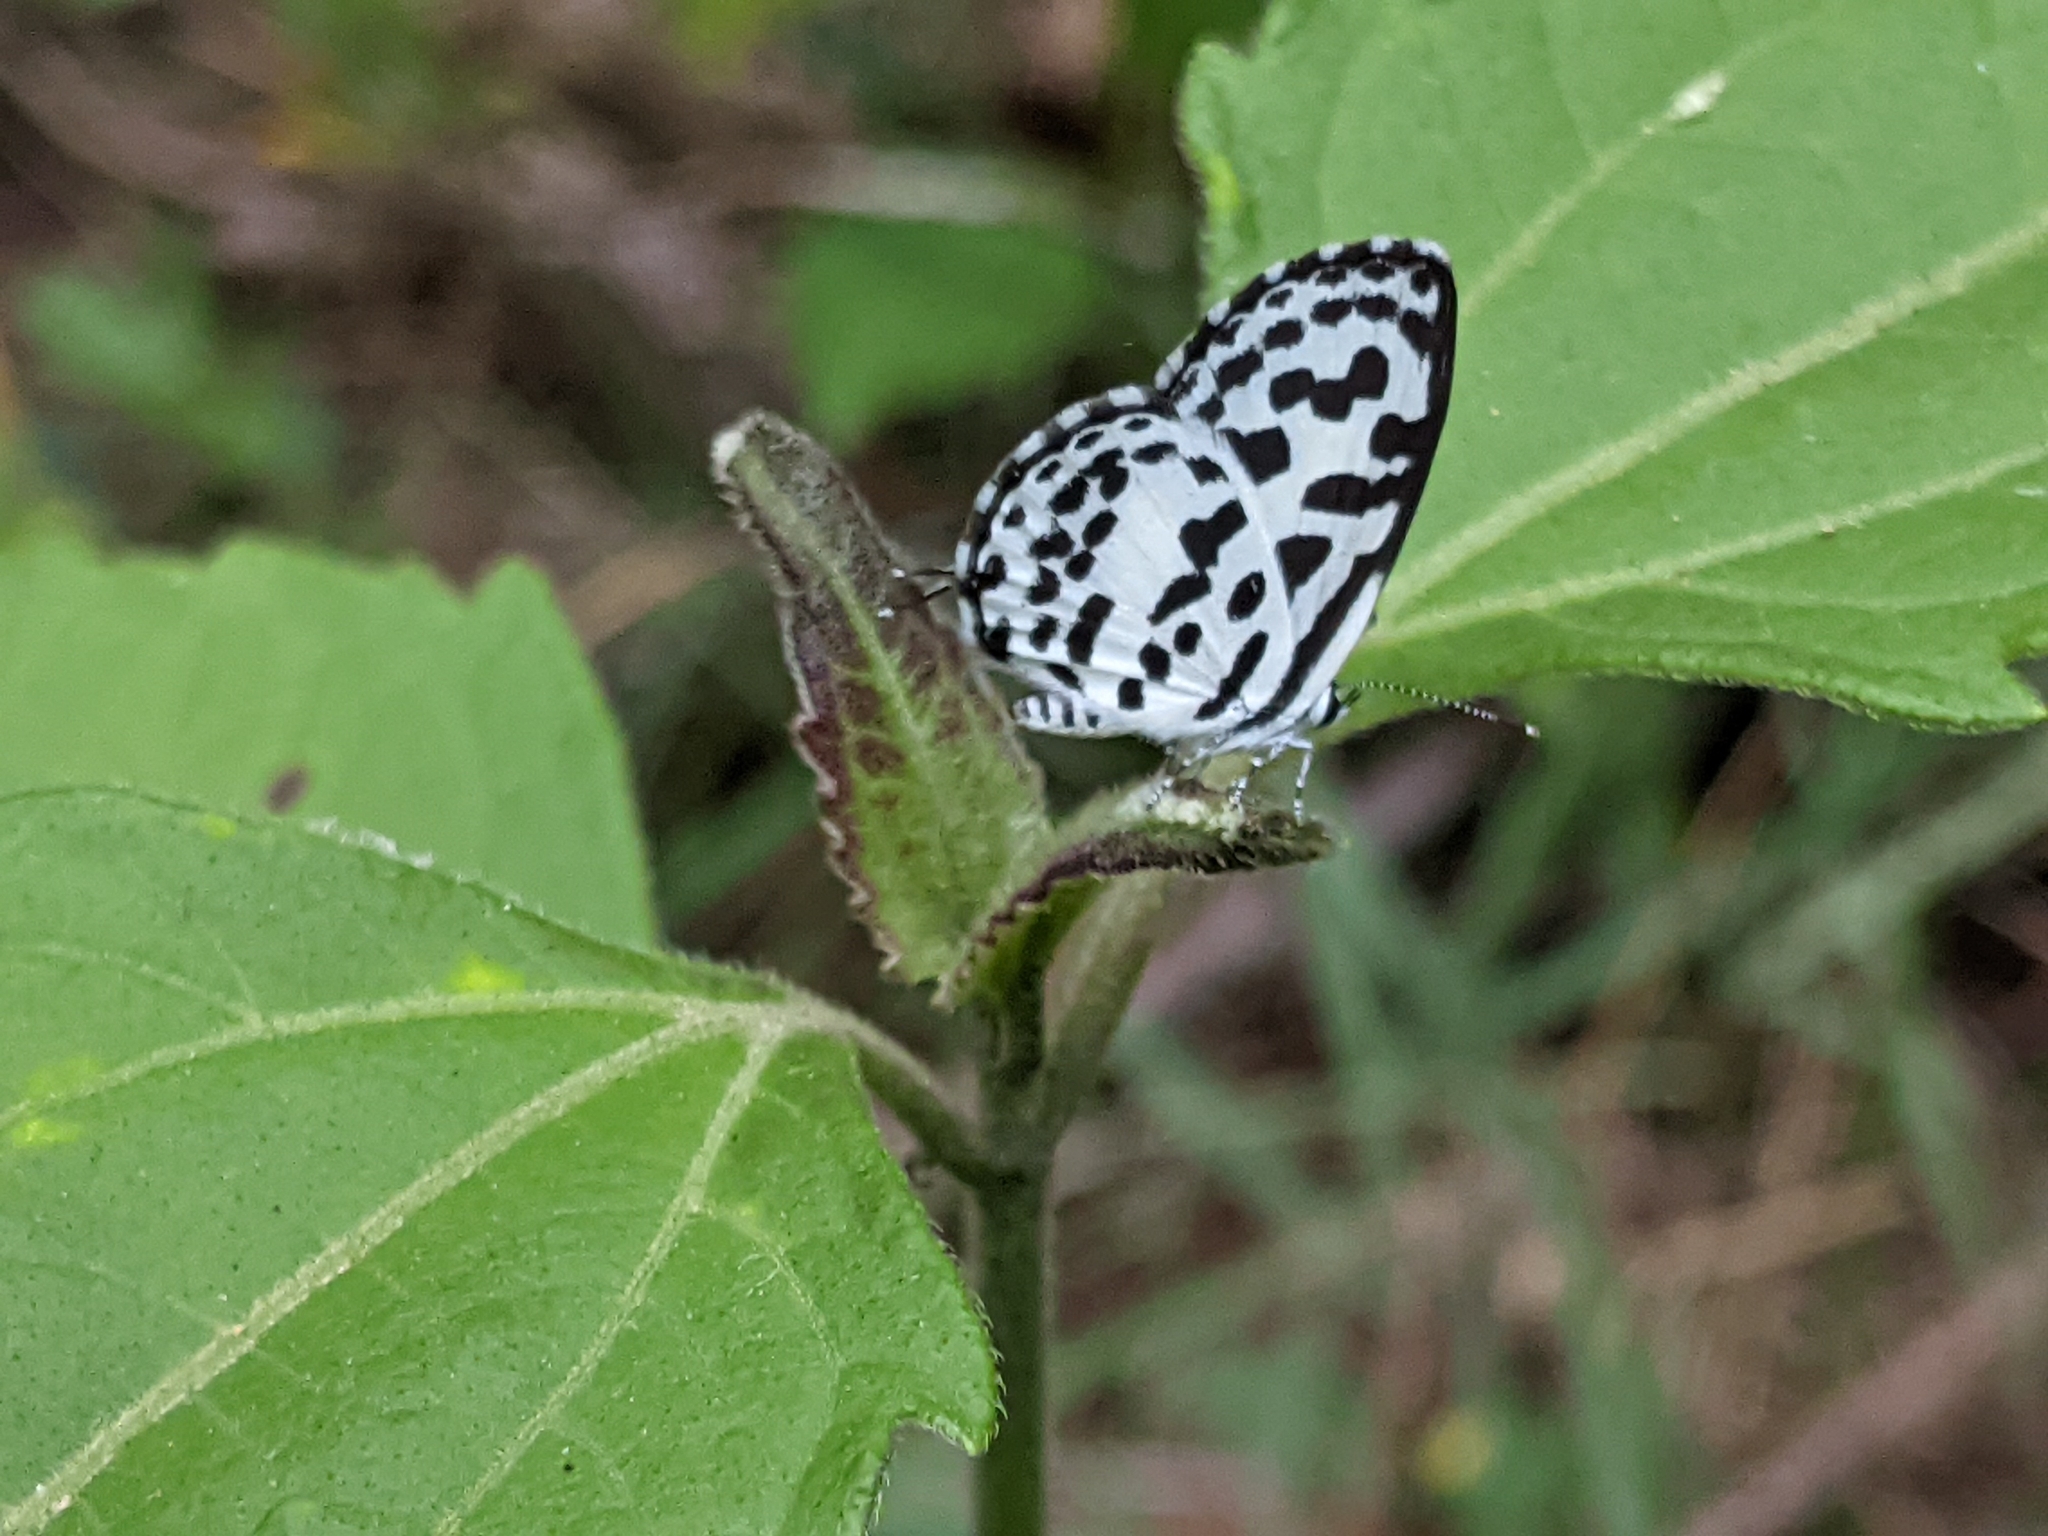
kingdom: Animalia
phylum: Arthropoda
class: Insecta
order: Lepidoptera
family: Lycaenidae
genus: Castalius
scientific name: Castalius rosimon
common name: Common pierrot
